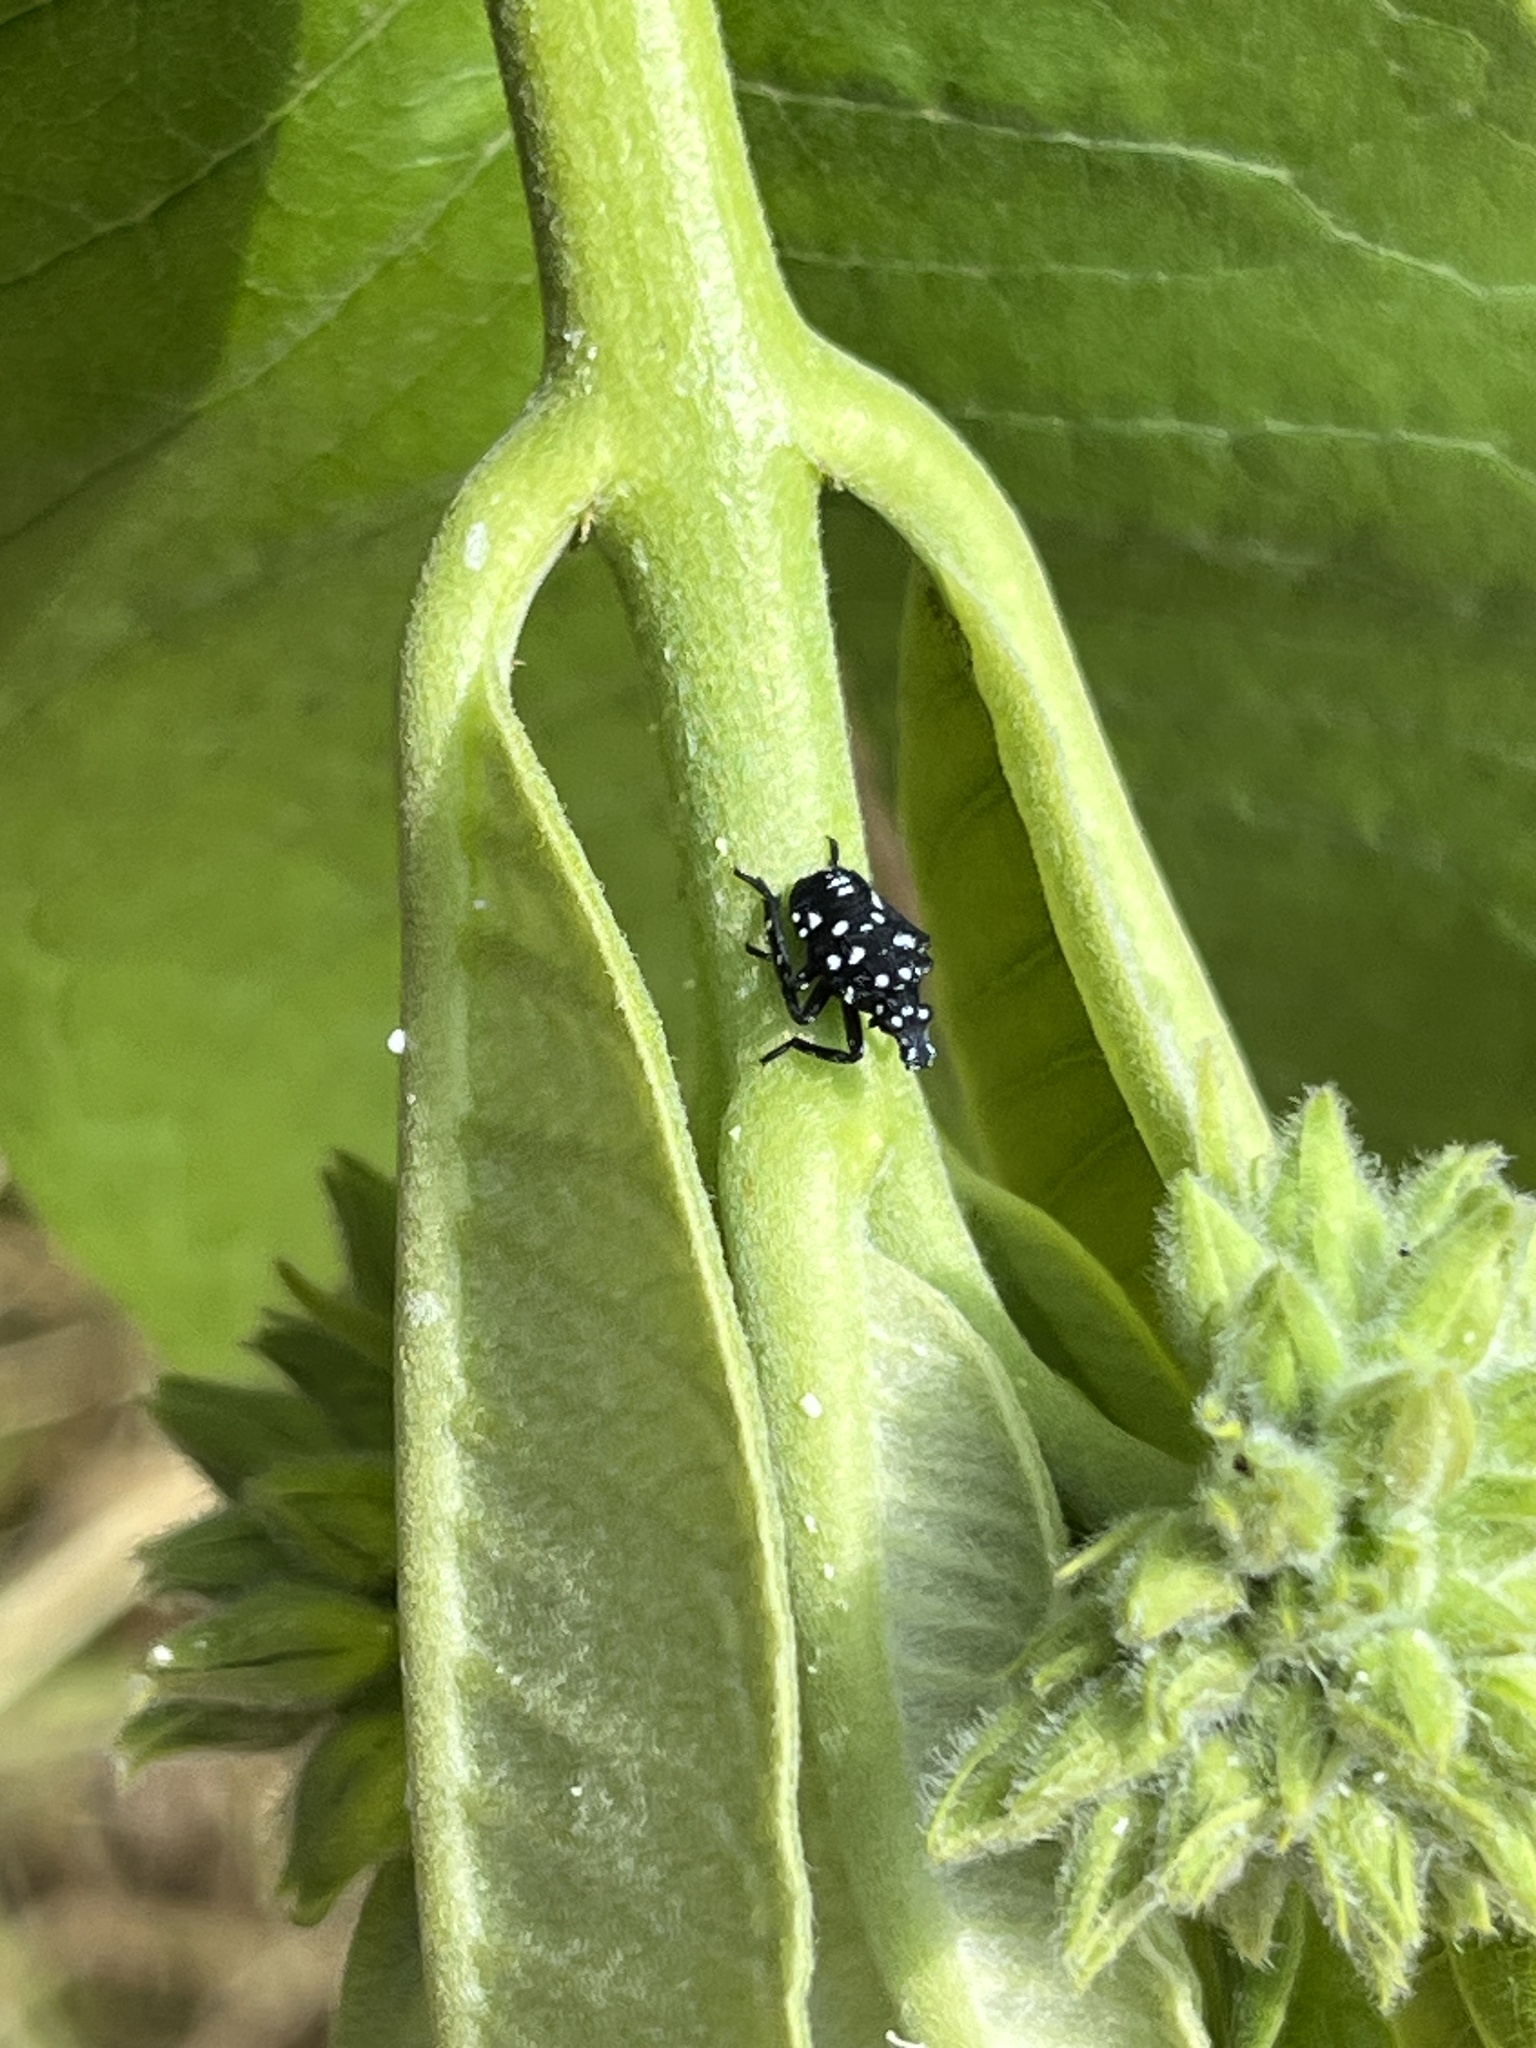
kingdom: Animalia
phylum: Arthropoda
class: Insecta
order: Hemiptera
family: Fulgoridae
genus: Lycorma
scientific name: Lycorma delicatula
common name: Spotted lanternfly
